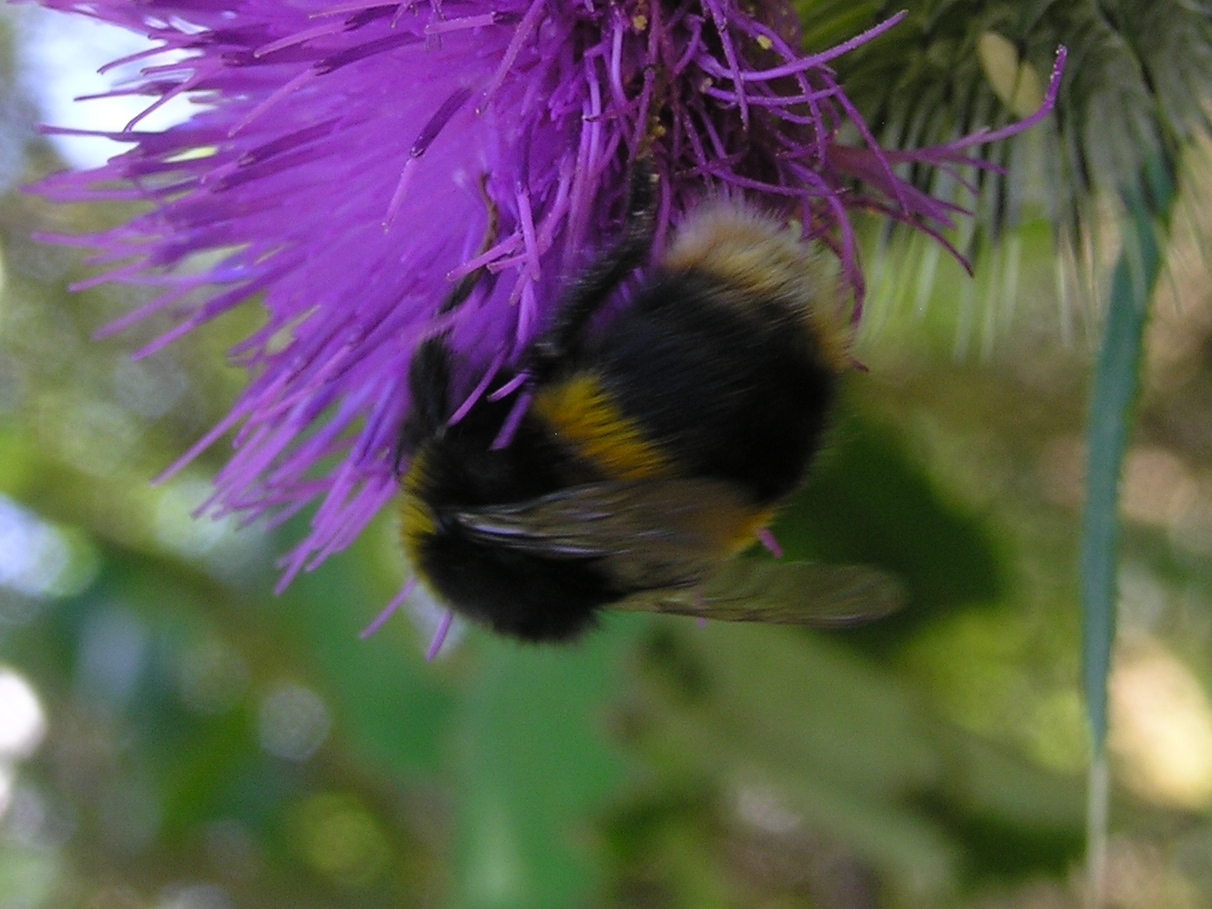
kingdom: Animalia
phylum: Arthropoda
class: Insecta
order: Hymenoptera
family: Apidae
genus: Bombus
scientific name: Bombus terrestris
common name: Buff-tailed bumblebee
